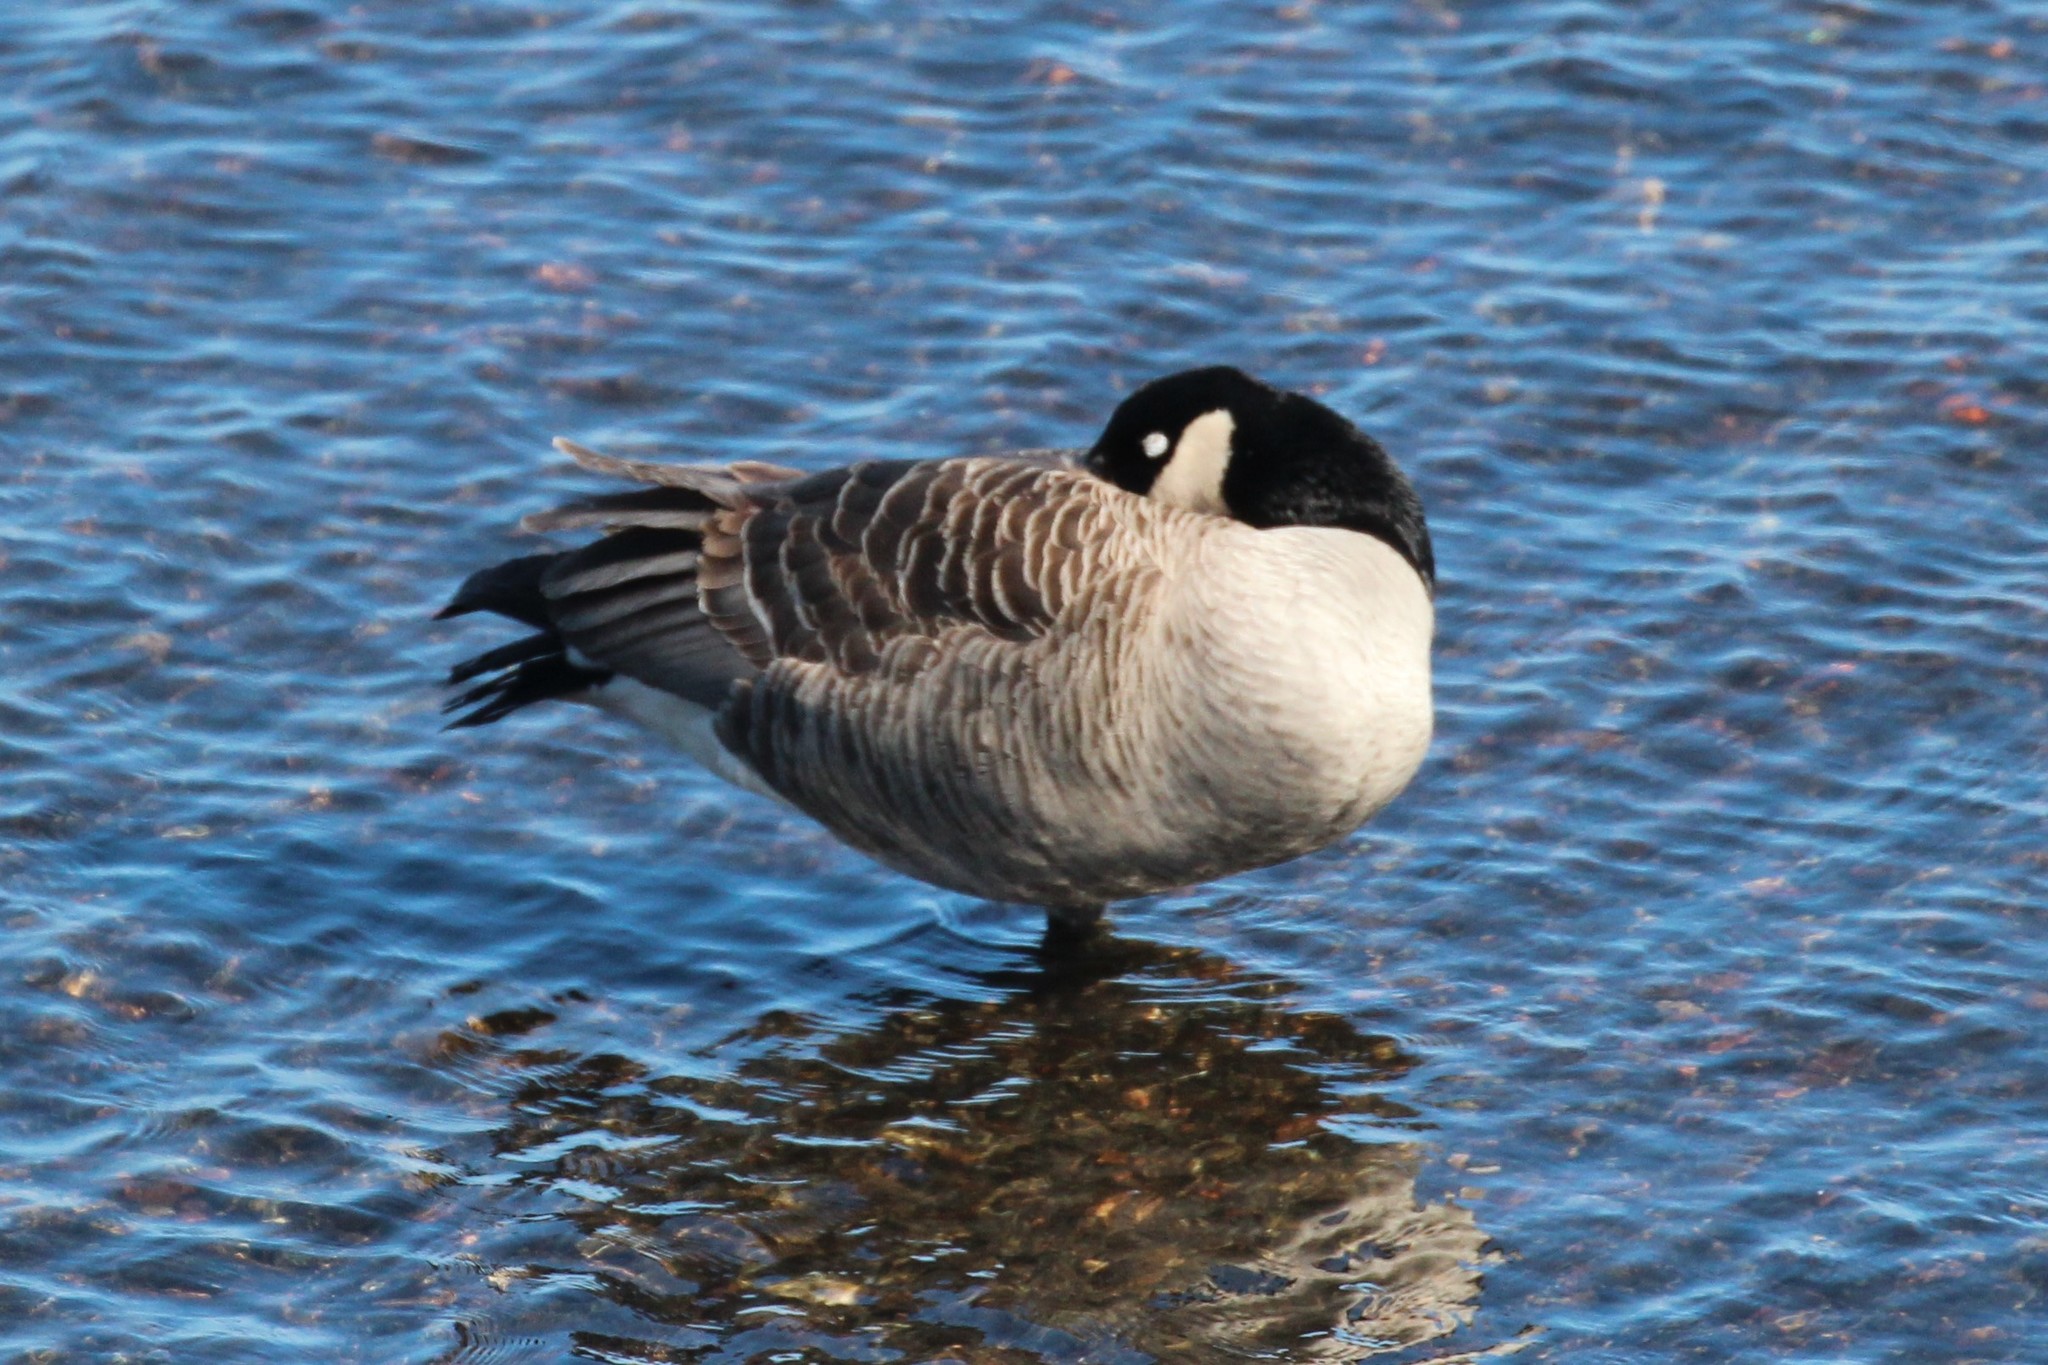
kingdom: Animalia
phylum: Chordata
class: Aves
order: Anseriformes
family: Anatidae
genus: Branta
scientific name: Branta canadensis
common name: Canada goose
